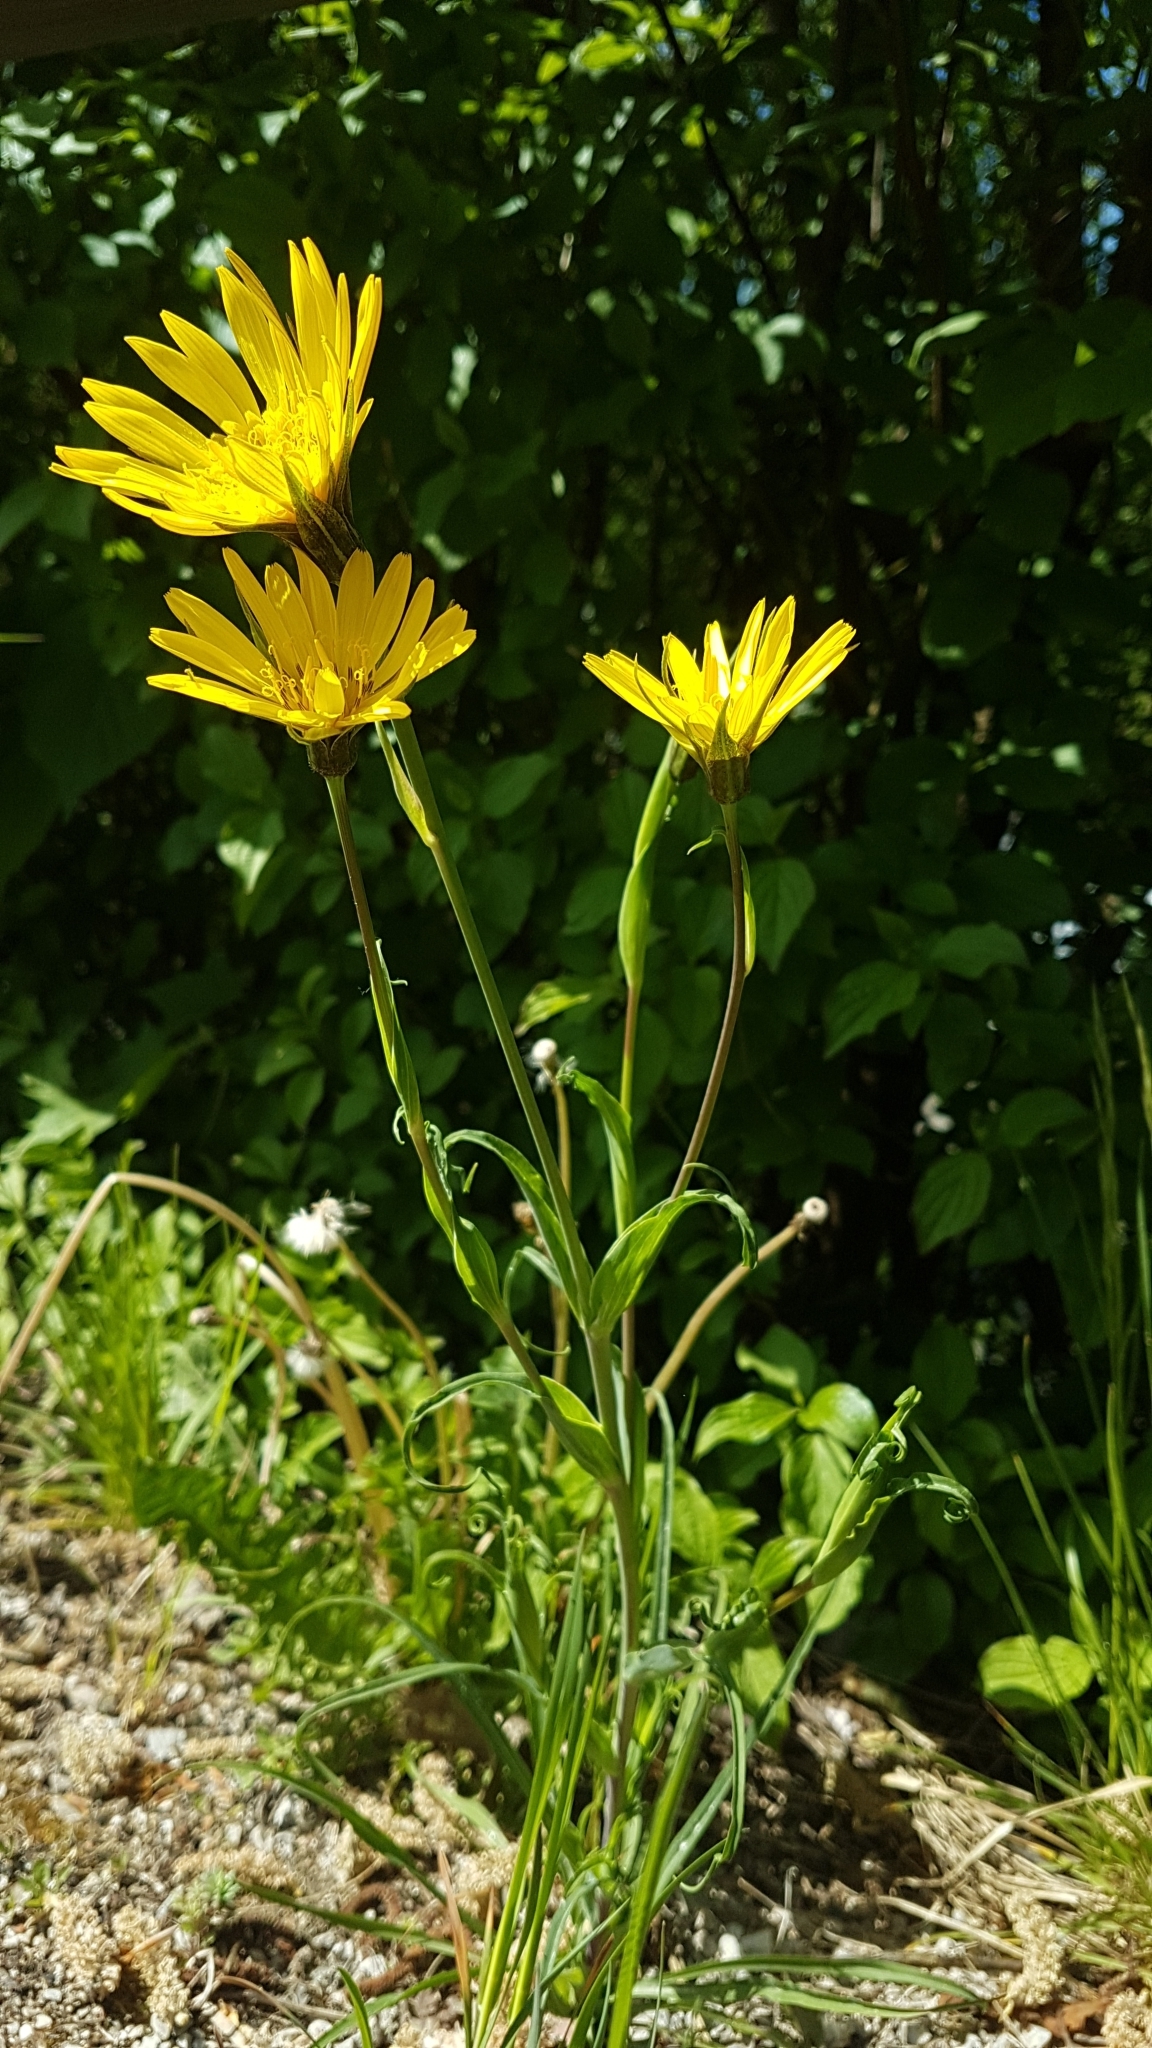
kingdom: Plantae
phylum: Tracheophyta
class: Magnoliopsida
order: Asterales
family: Asteraceae
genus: Tragopogon
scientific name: Tragopogon orientalis
